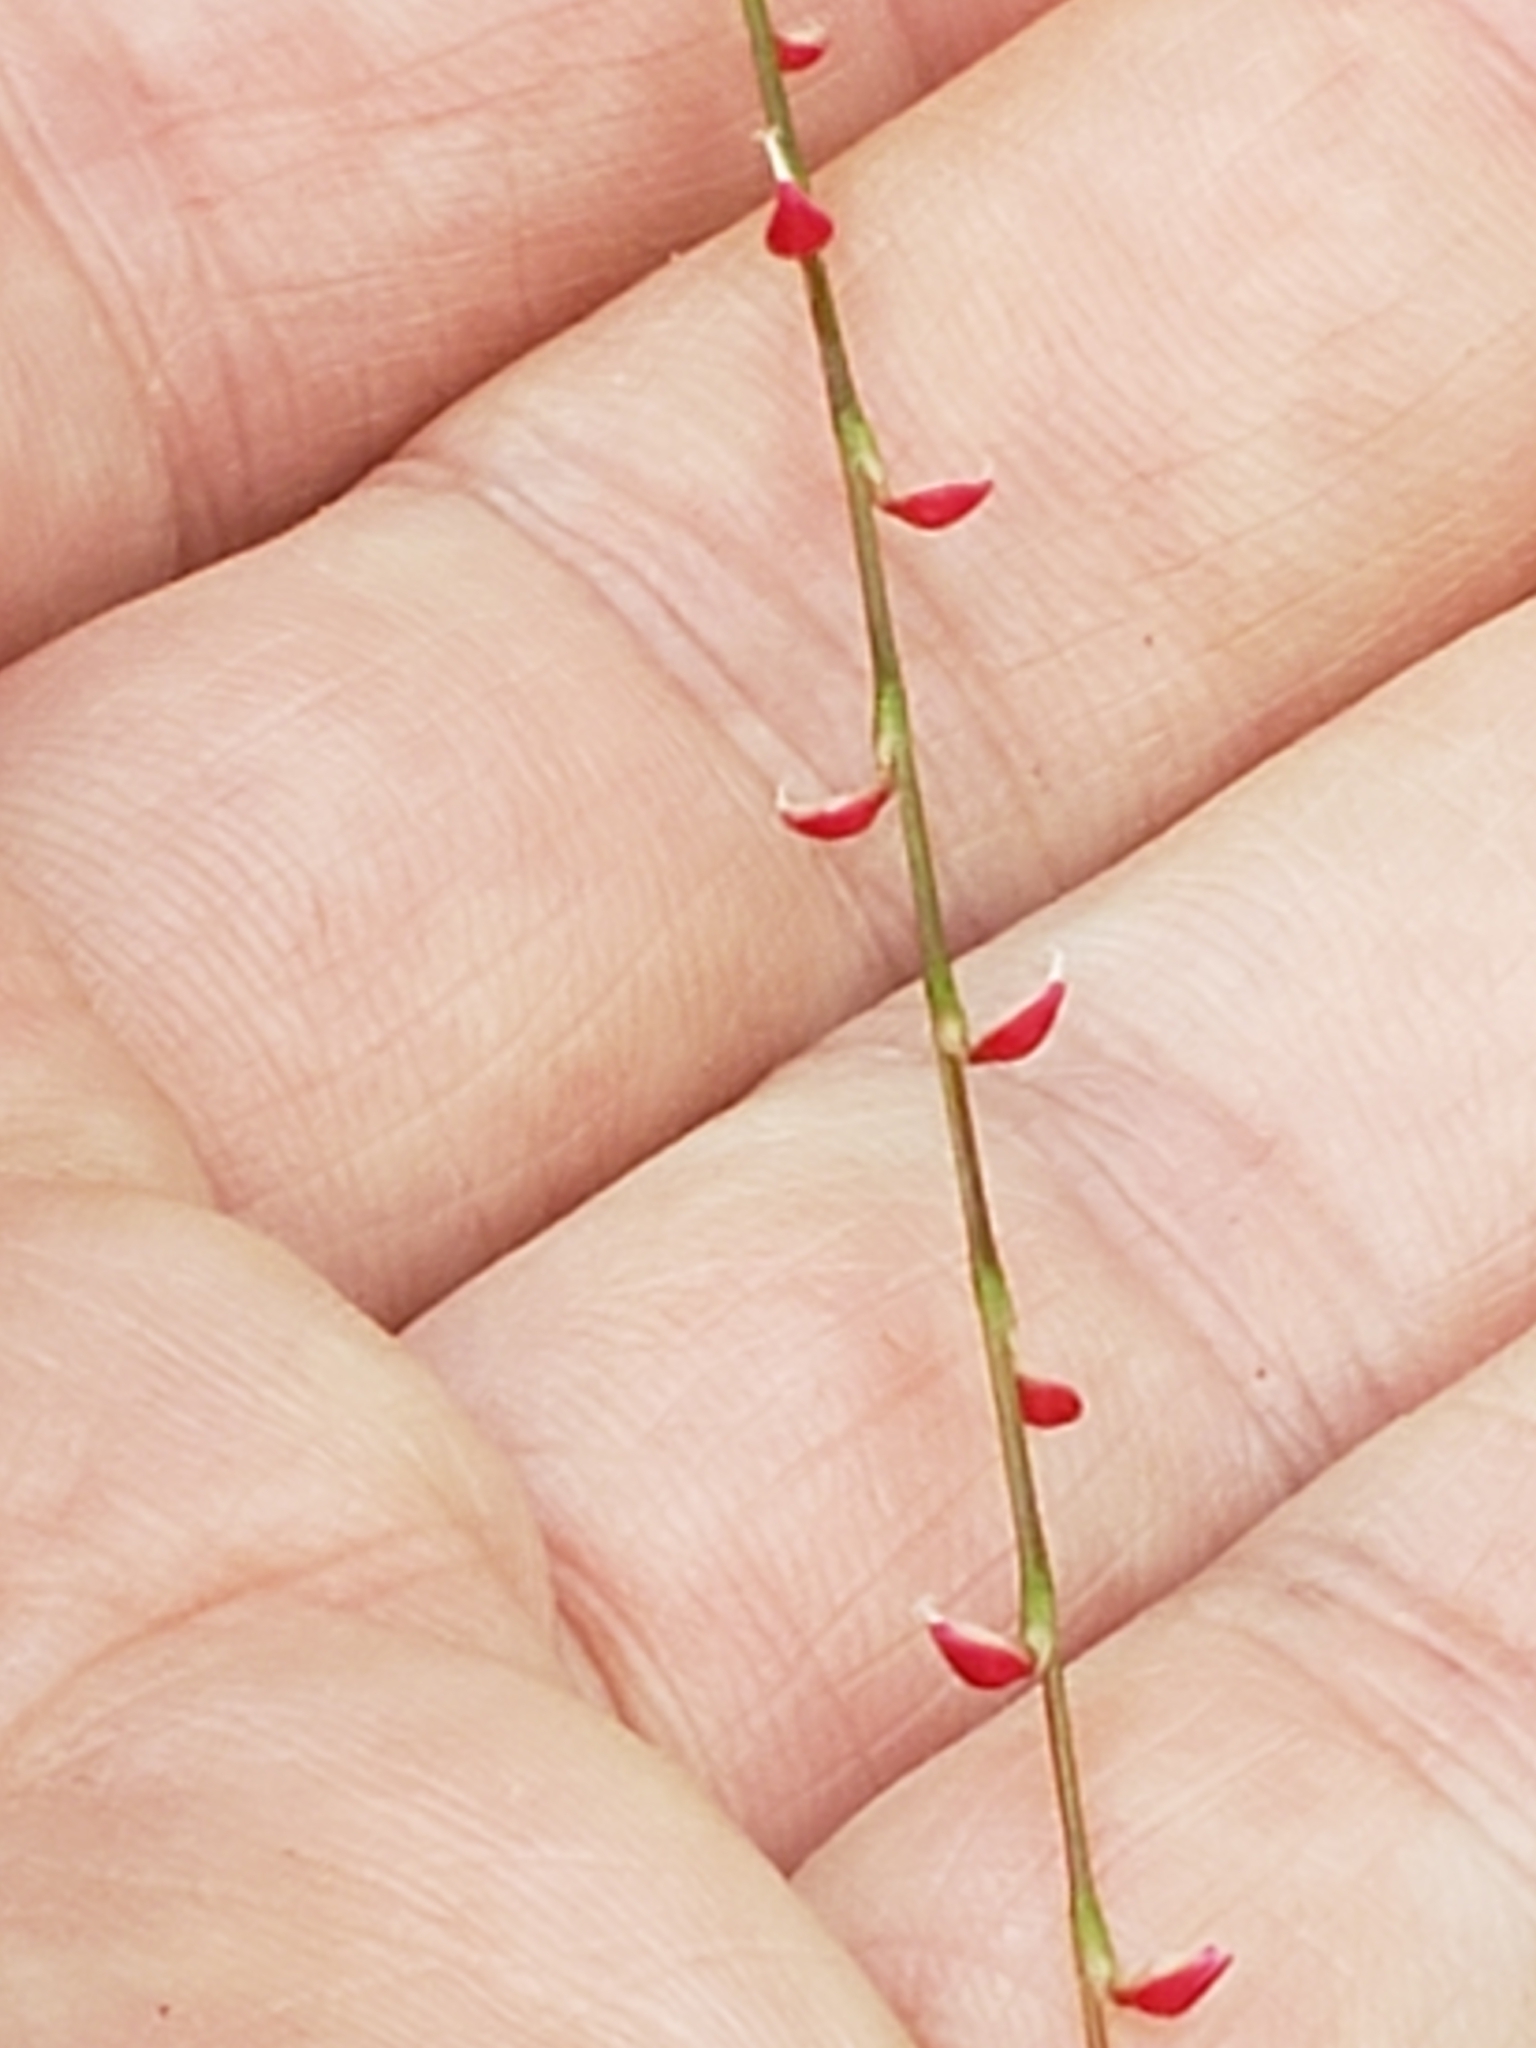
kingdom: Plantae
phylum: Tracheophyta
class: Magnoliopsida
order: Caryophyllales
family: Polygonaceae
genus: Persicaria
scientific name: Persicaria filiformis
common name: Asian jumpseed
